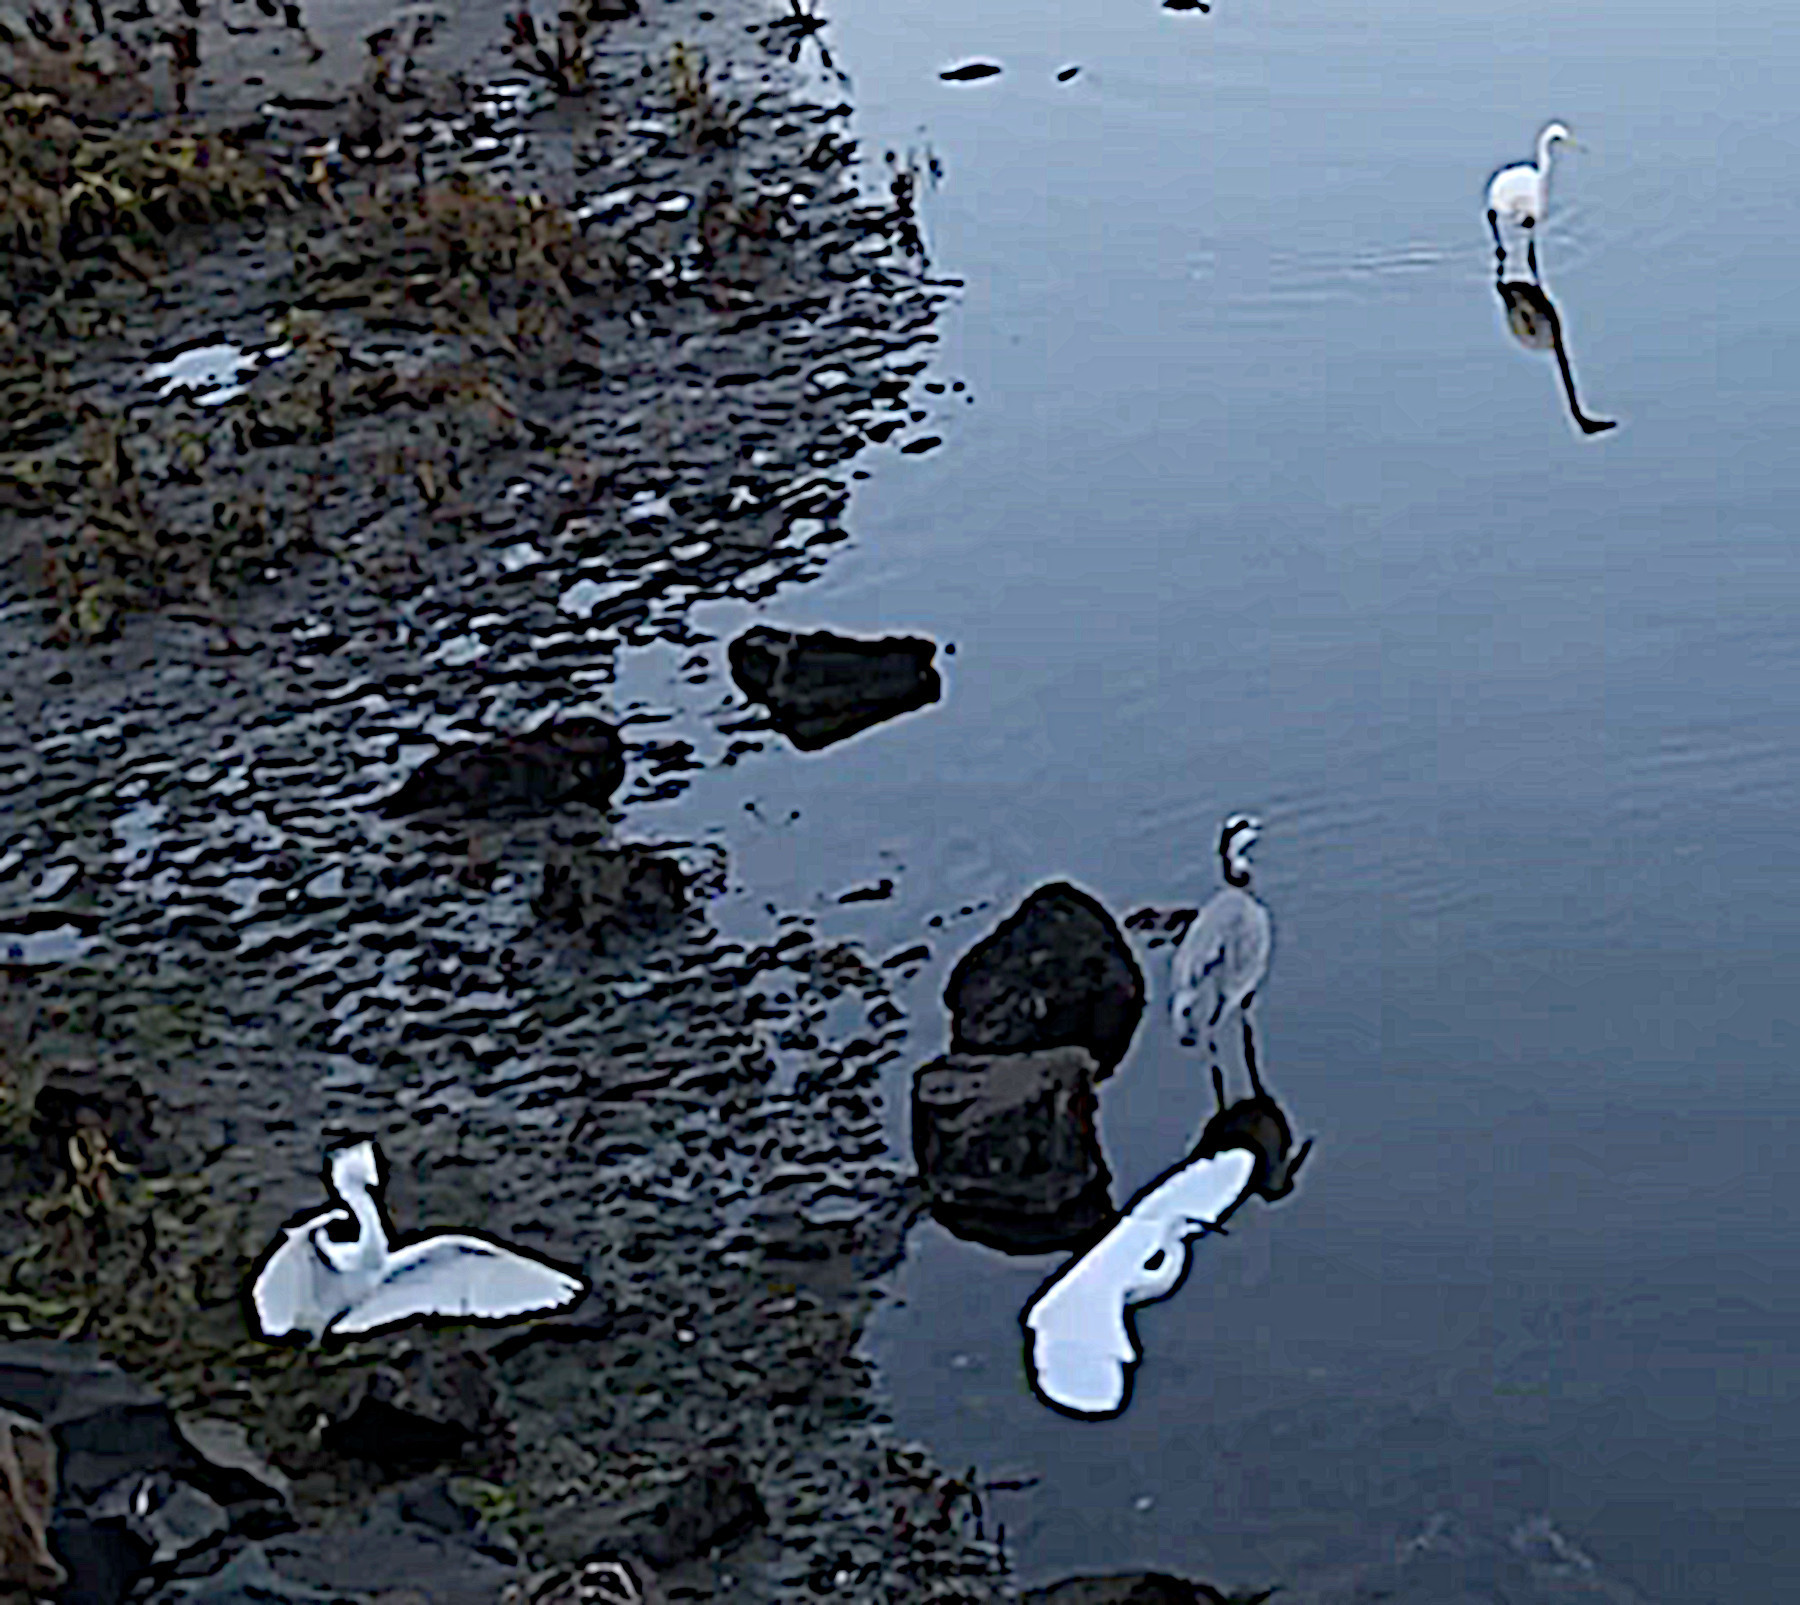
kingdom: Animalia
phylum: Chordata
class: Aves
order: Pelecaniformes
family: Ardeidae
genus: Egretta
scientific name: Egretta caerulea
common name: Little blue heron
